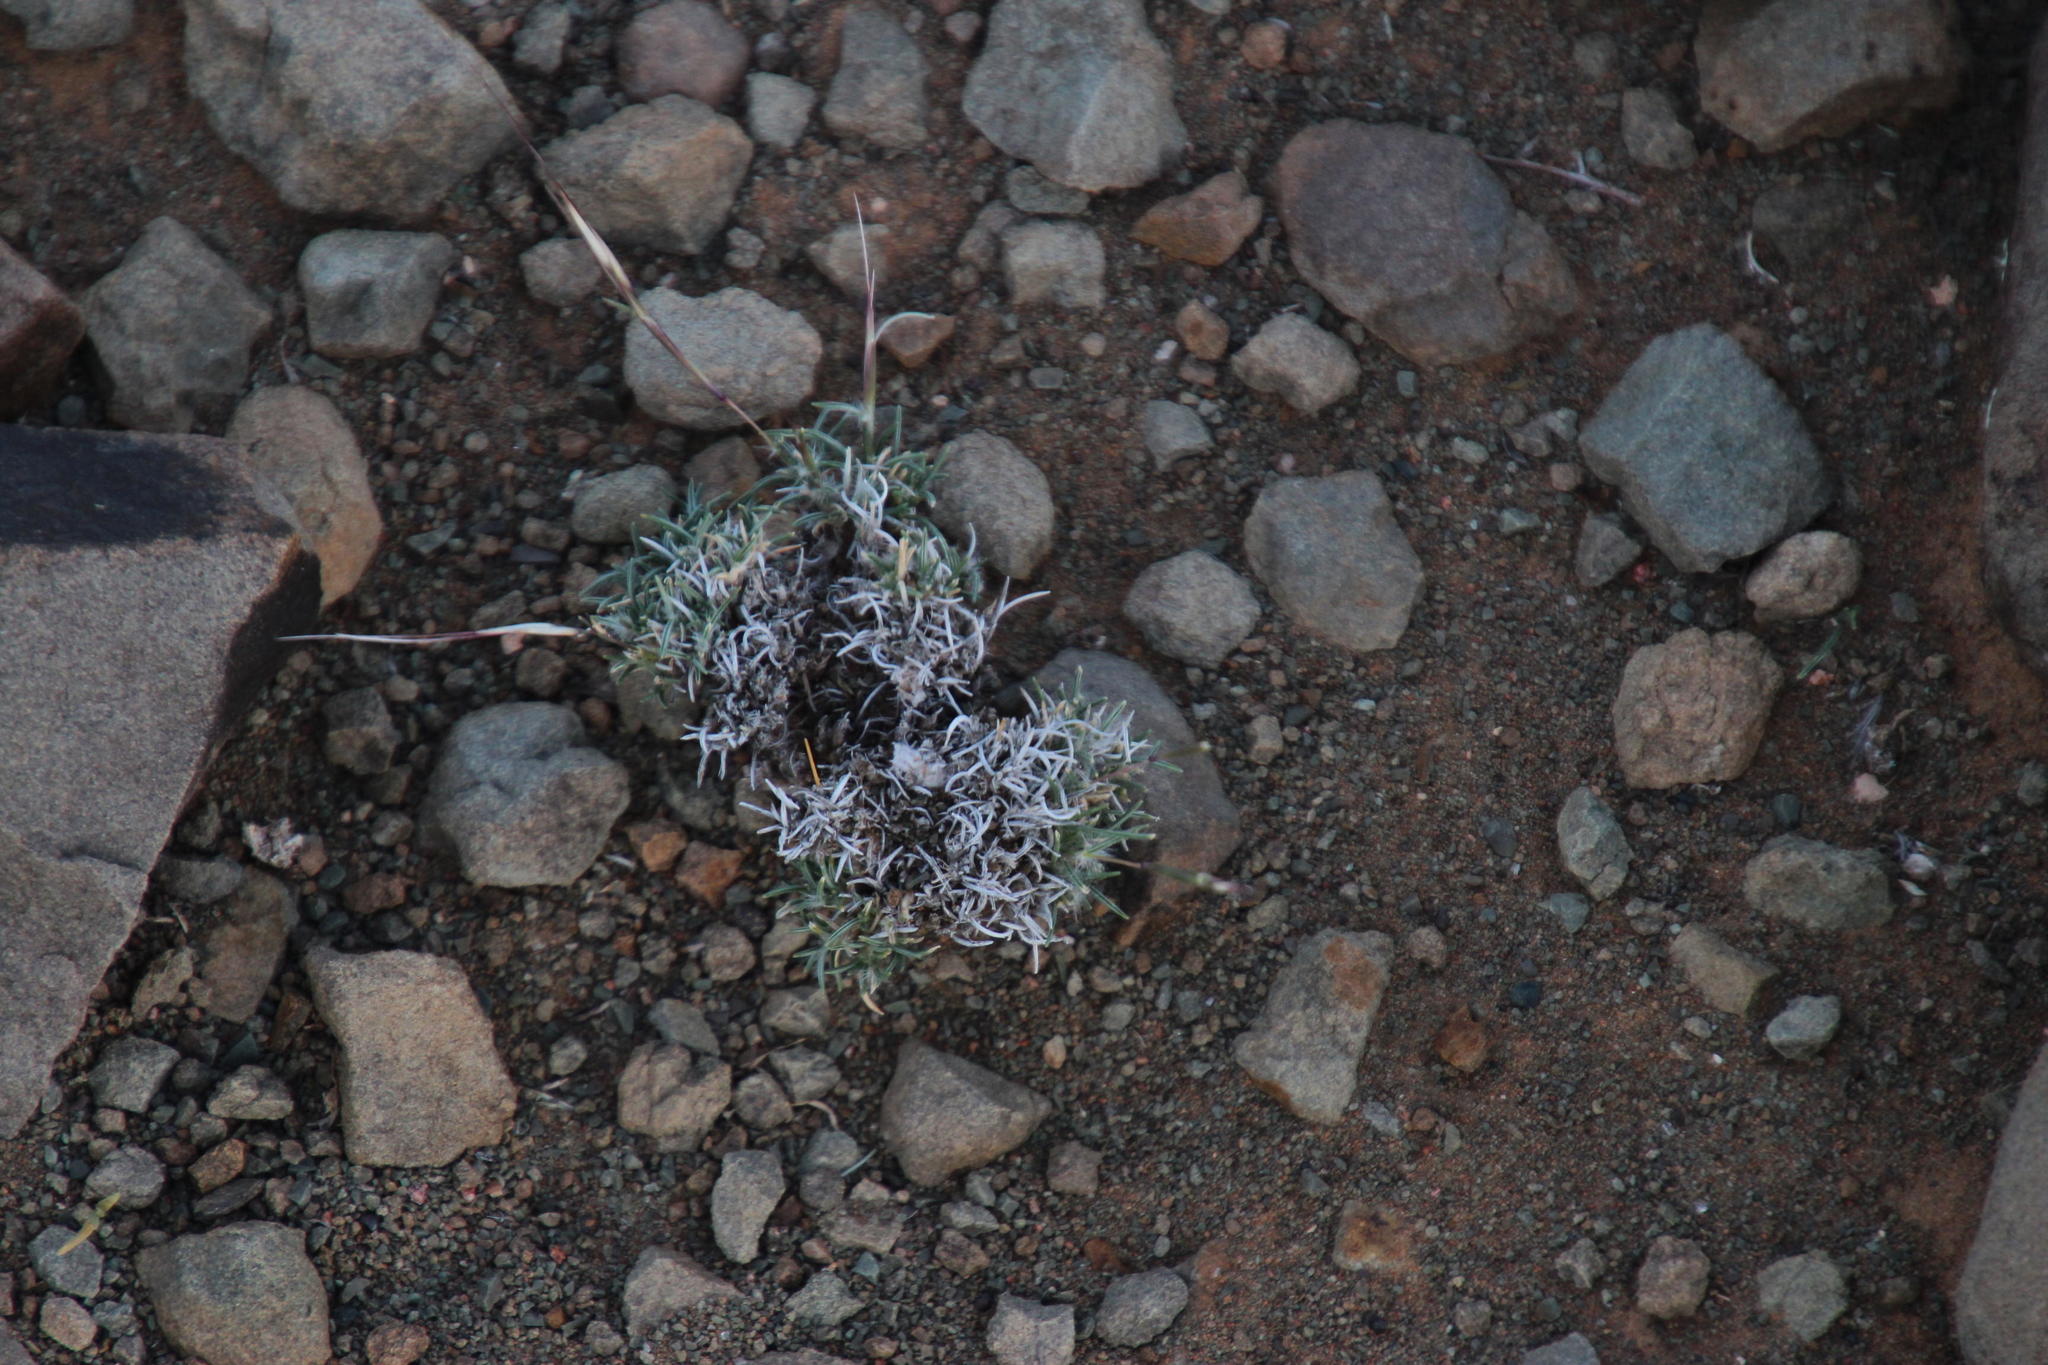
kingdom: Plantae
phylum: Tracheophyta
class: Liliopsida
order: Poales
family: Poaceae
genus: Stipagrostis
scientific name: Stipagrostis obtusa
